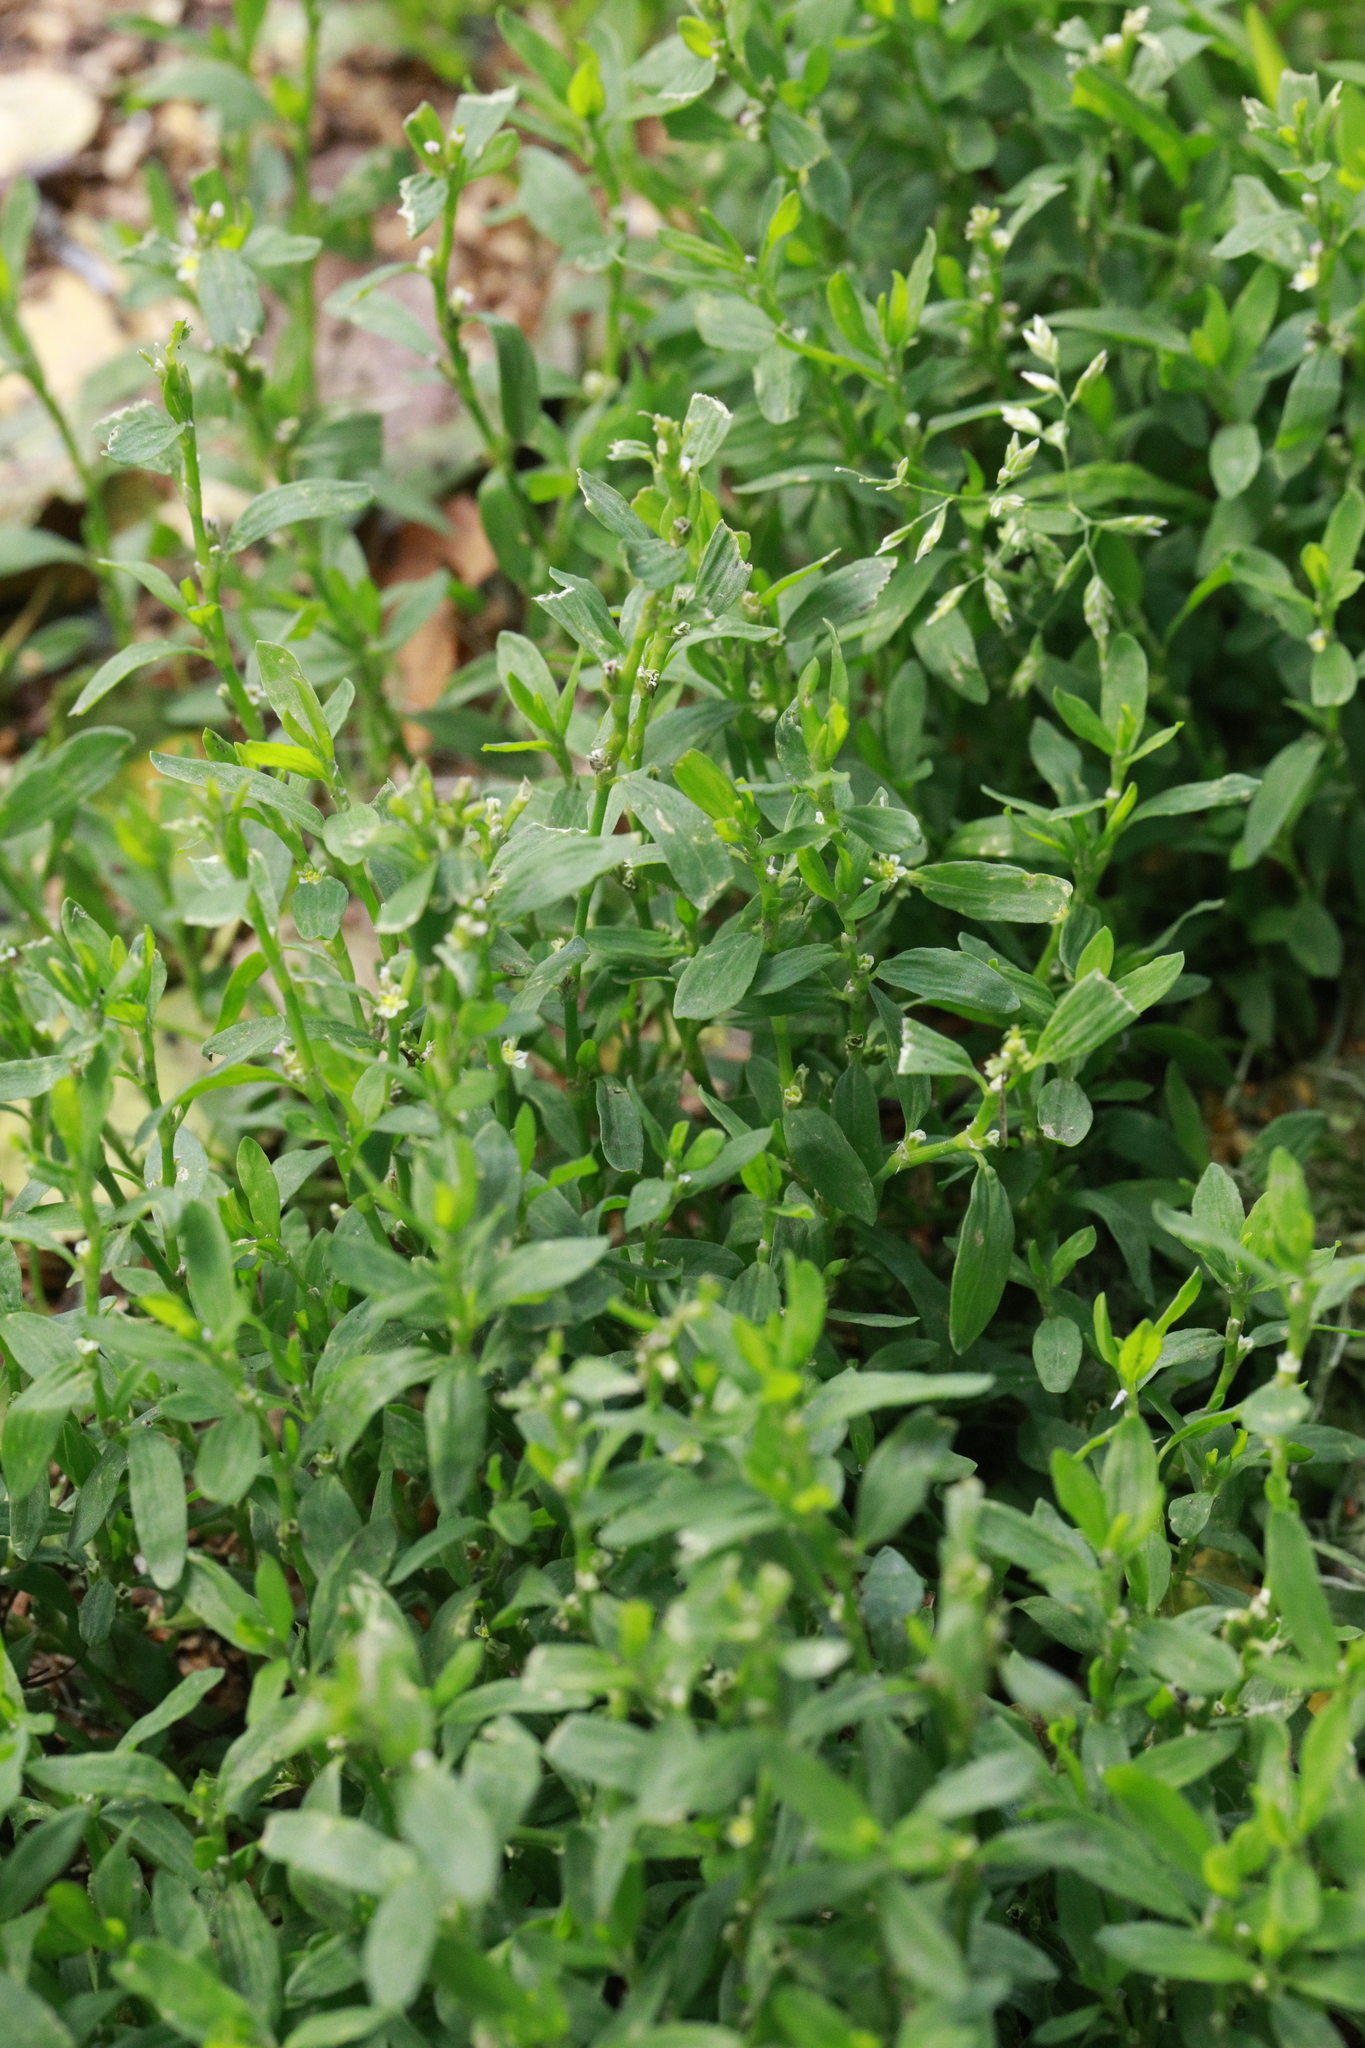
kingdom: Plantae
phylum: Tracheophyta
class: Magnoliopsida
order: Caryophyllales
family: Polygonaceae
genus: Polygonum
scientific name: Polygonum aviculare
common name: Prostrate knotweed
